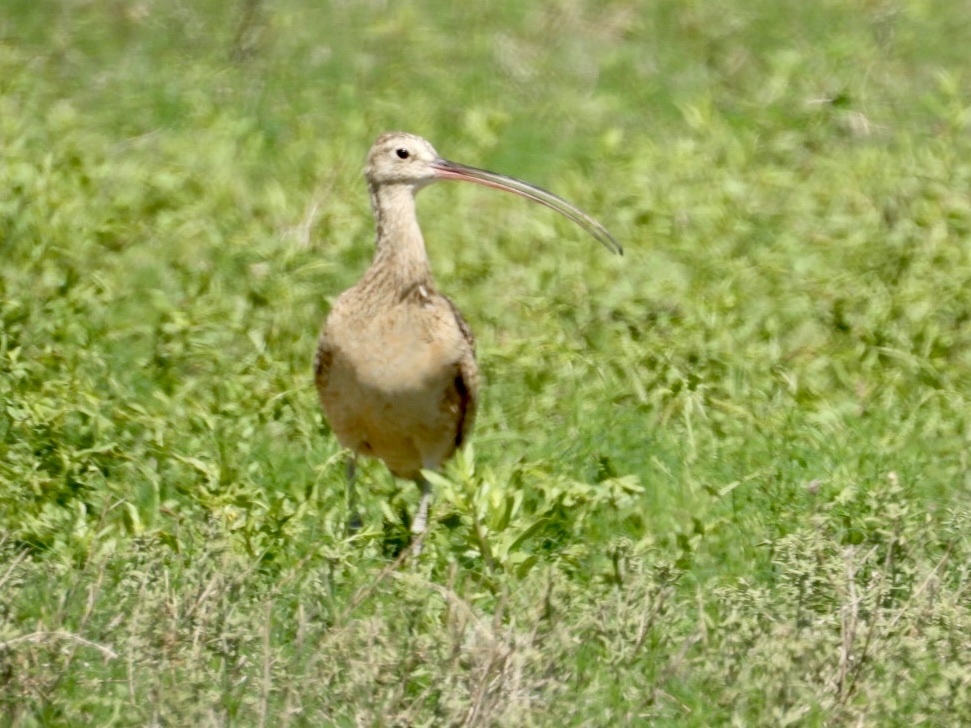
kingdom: Animalia
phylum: Chordata
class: Aves
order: Charadriiformes
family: Scolopacidae
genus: Numenius
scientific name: Numenius americanus
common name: Long-billed curlew
